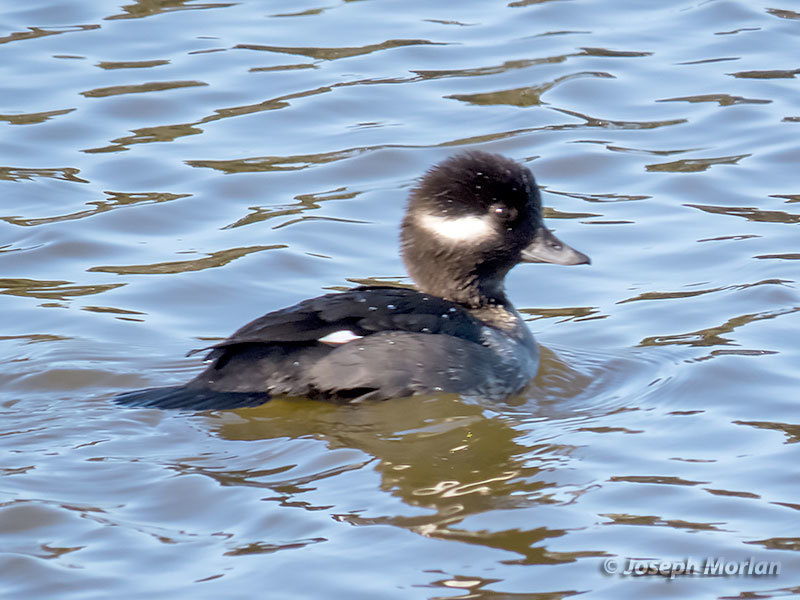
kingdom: Animalia
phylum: Chordata
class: Aves
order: Anseriformes
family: Anatidae
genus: Bucephala
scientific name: Bucephala albeola
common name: Bufflehead
